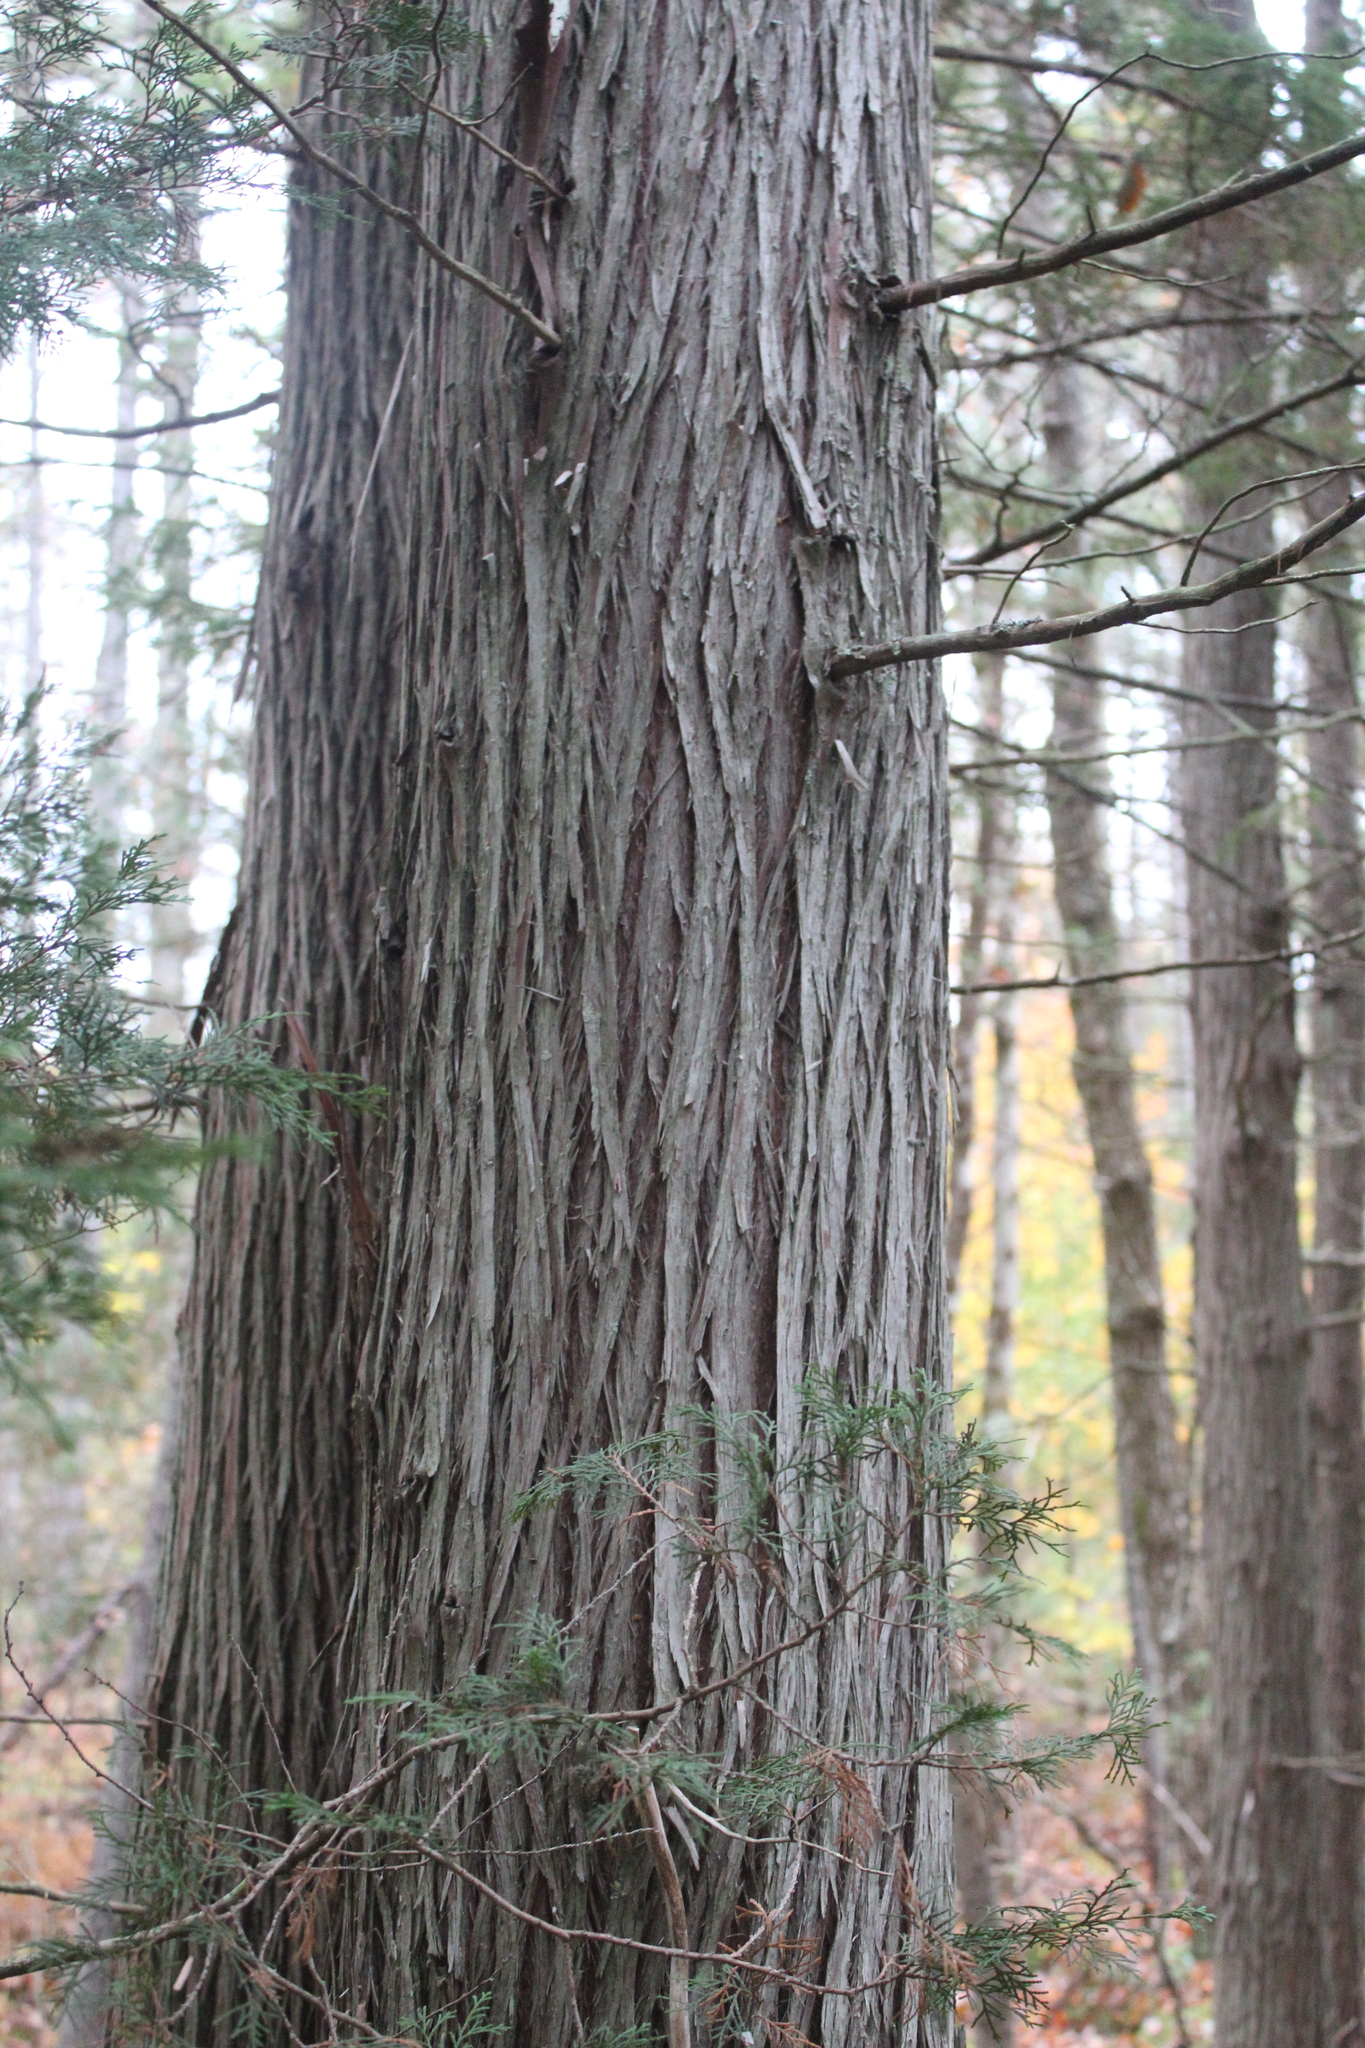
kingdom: Plantae
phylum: Tracheophyta
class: Pinopsida
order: Pinales
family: Cupressaceae
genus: Chamaecyparis
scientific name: Chamaecyparis thyoides
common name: Atlantic white cedar
